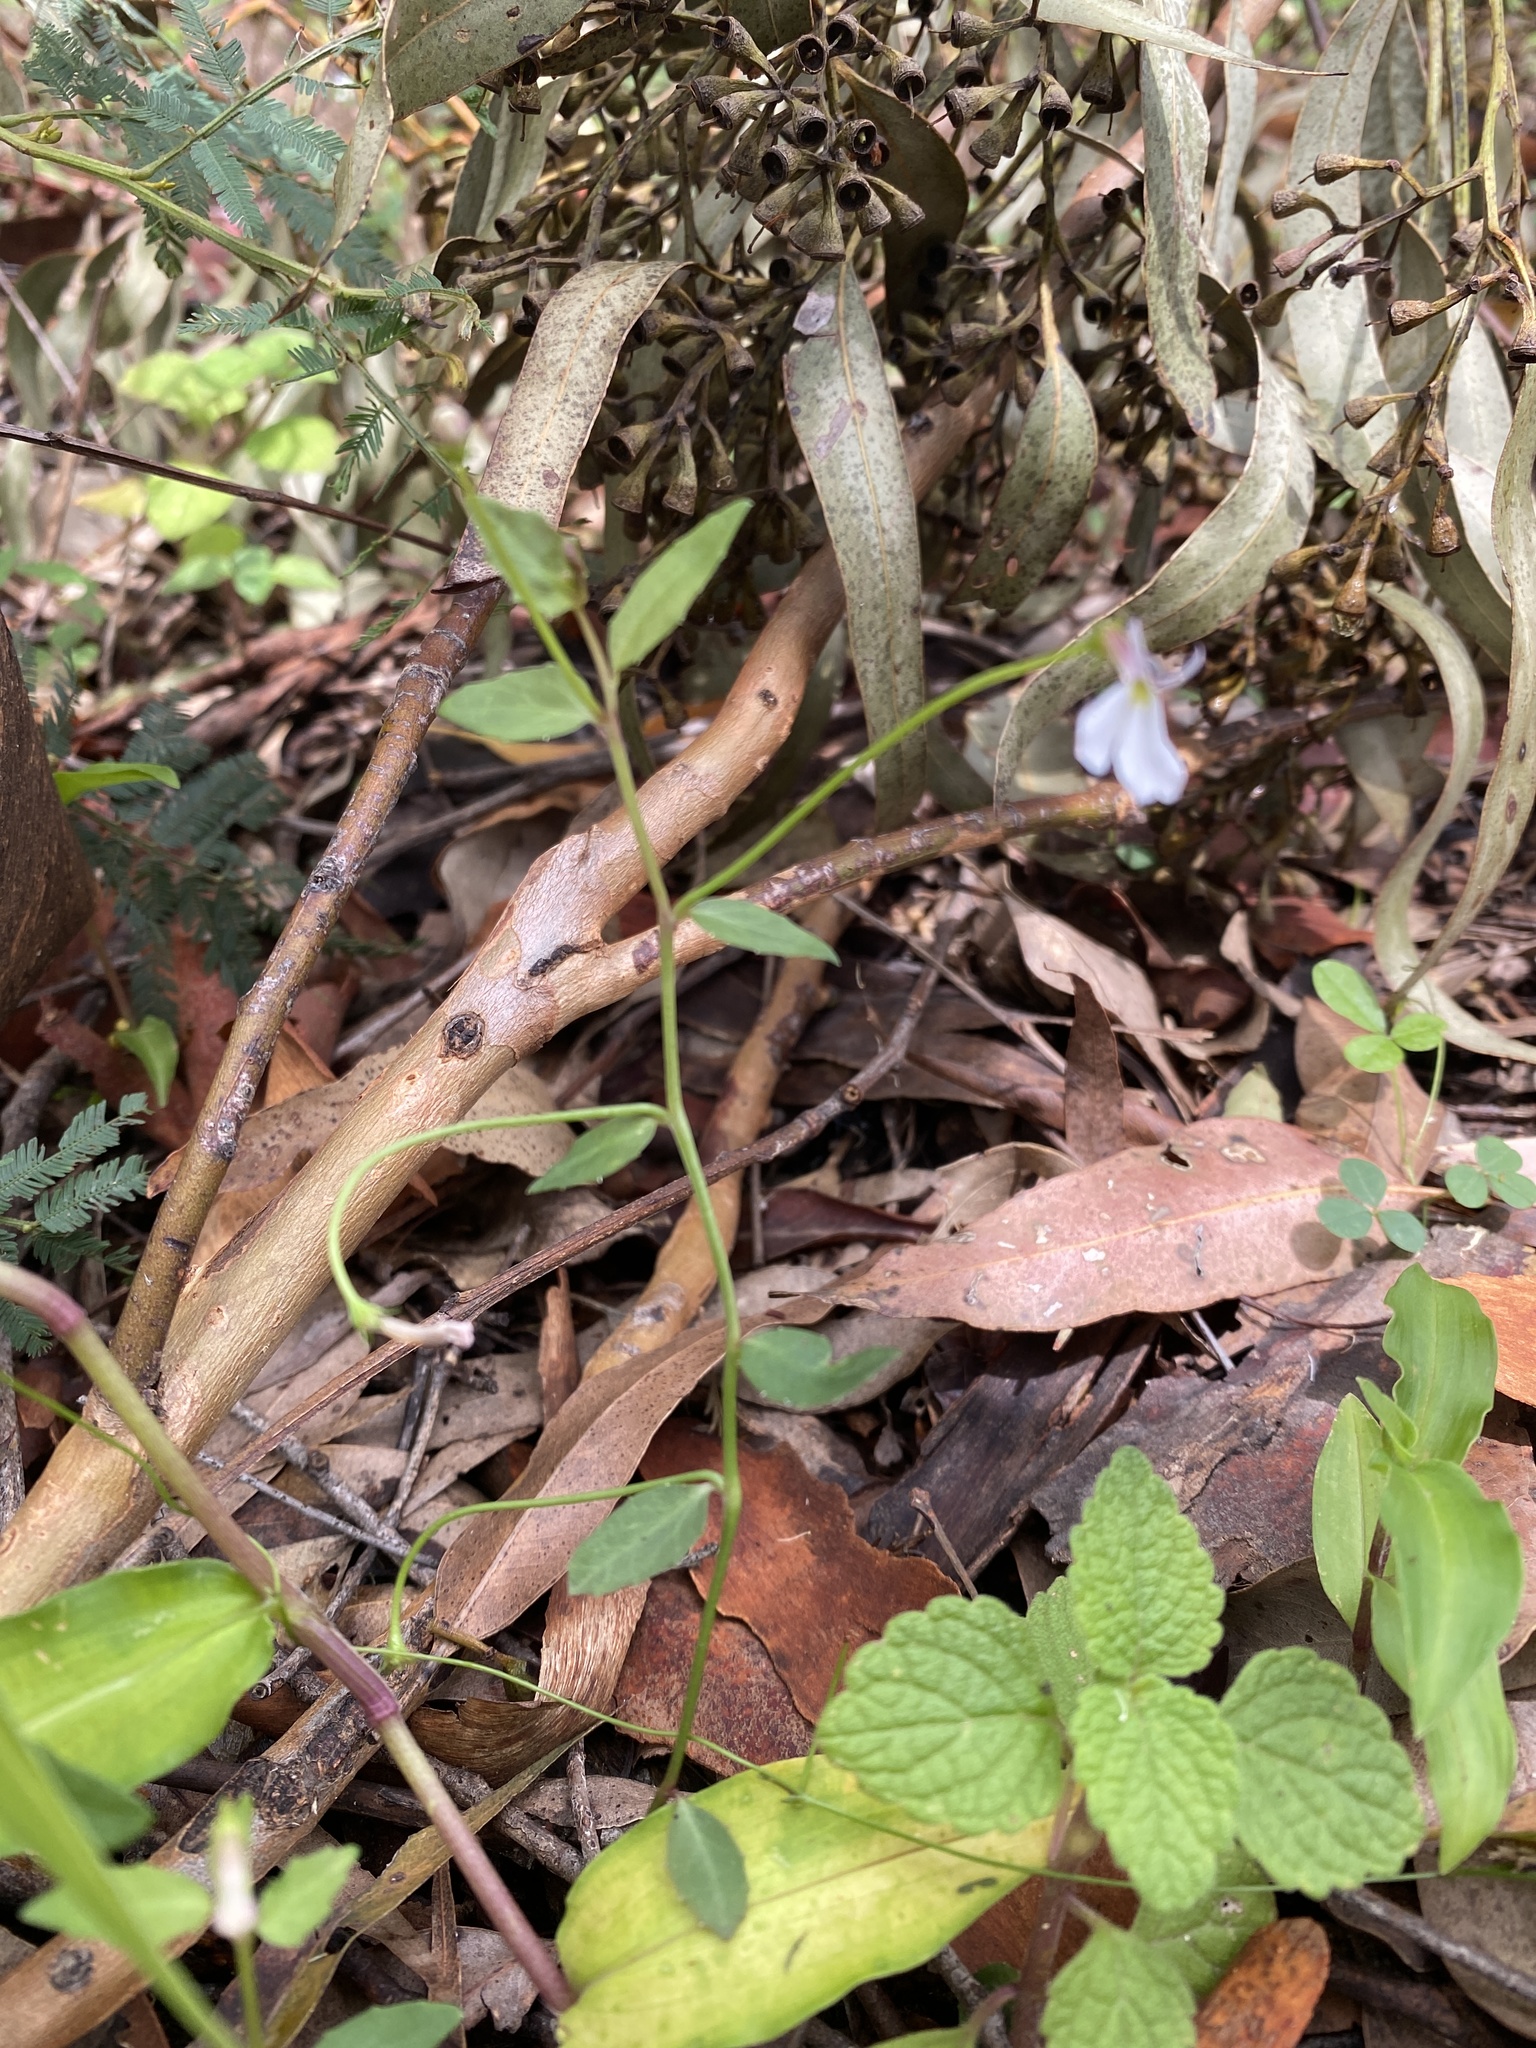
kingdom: Plantae
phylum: Tracheophyta
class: Magnoliopsida
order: Asterales
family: Campanulaceae
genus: Lobelia
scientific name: Lobelia purpurascens
